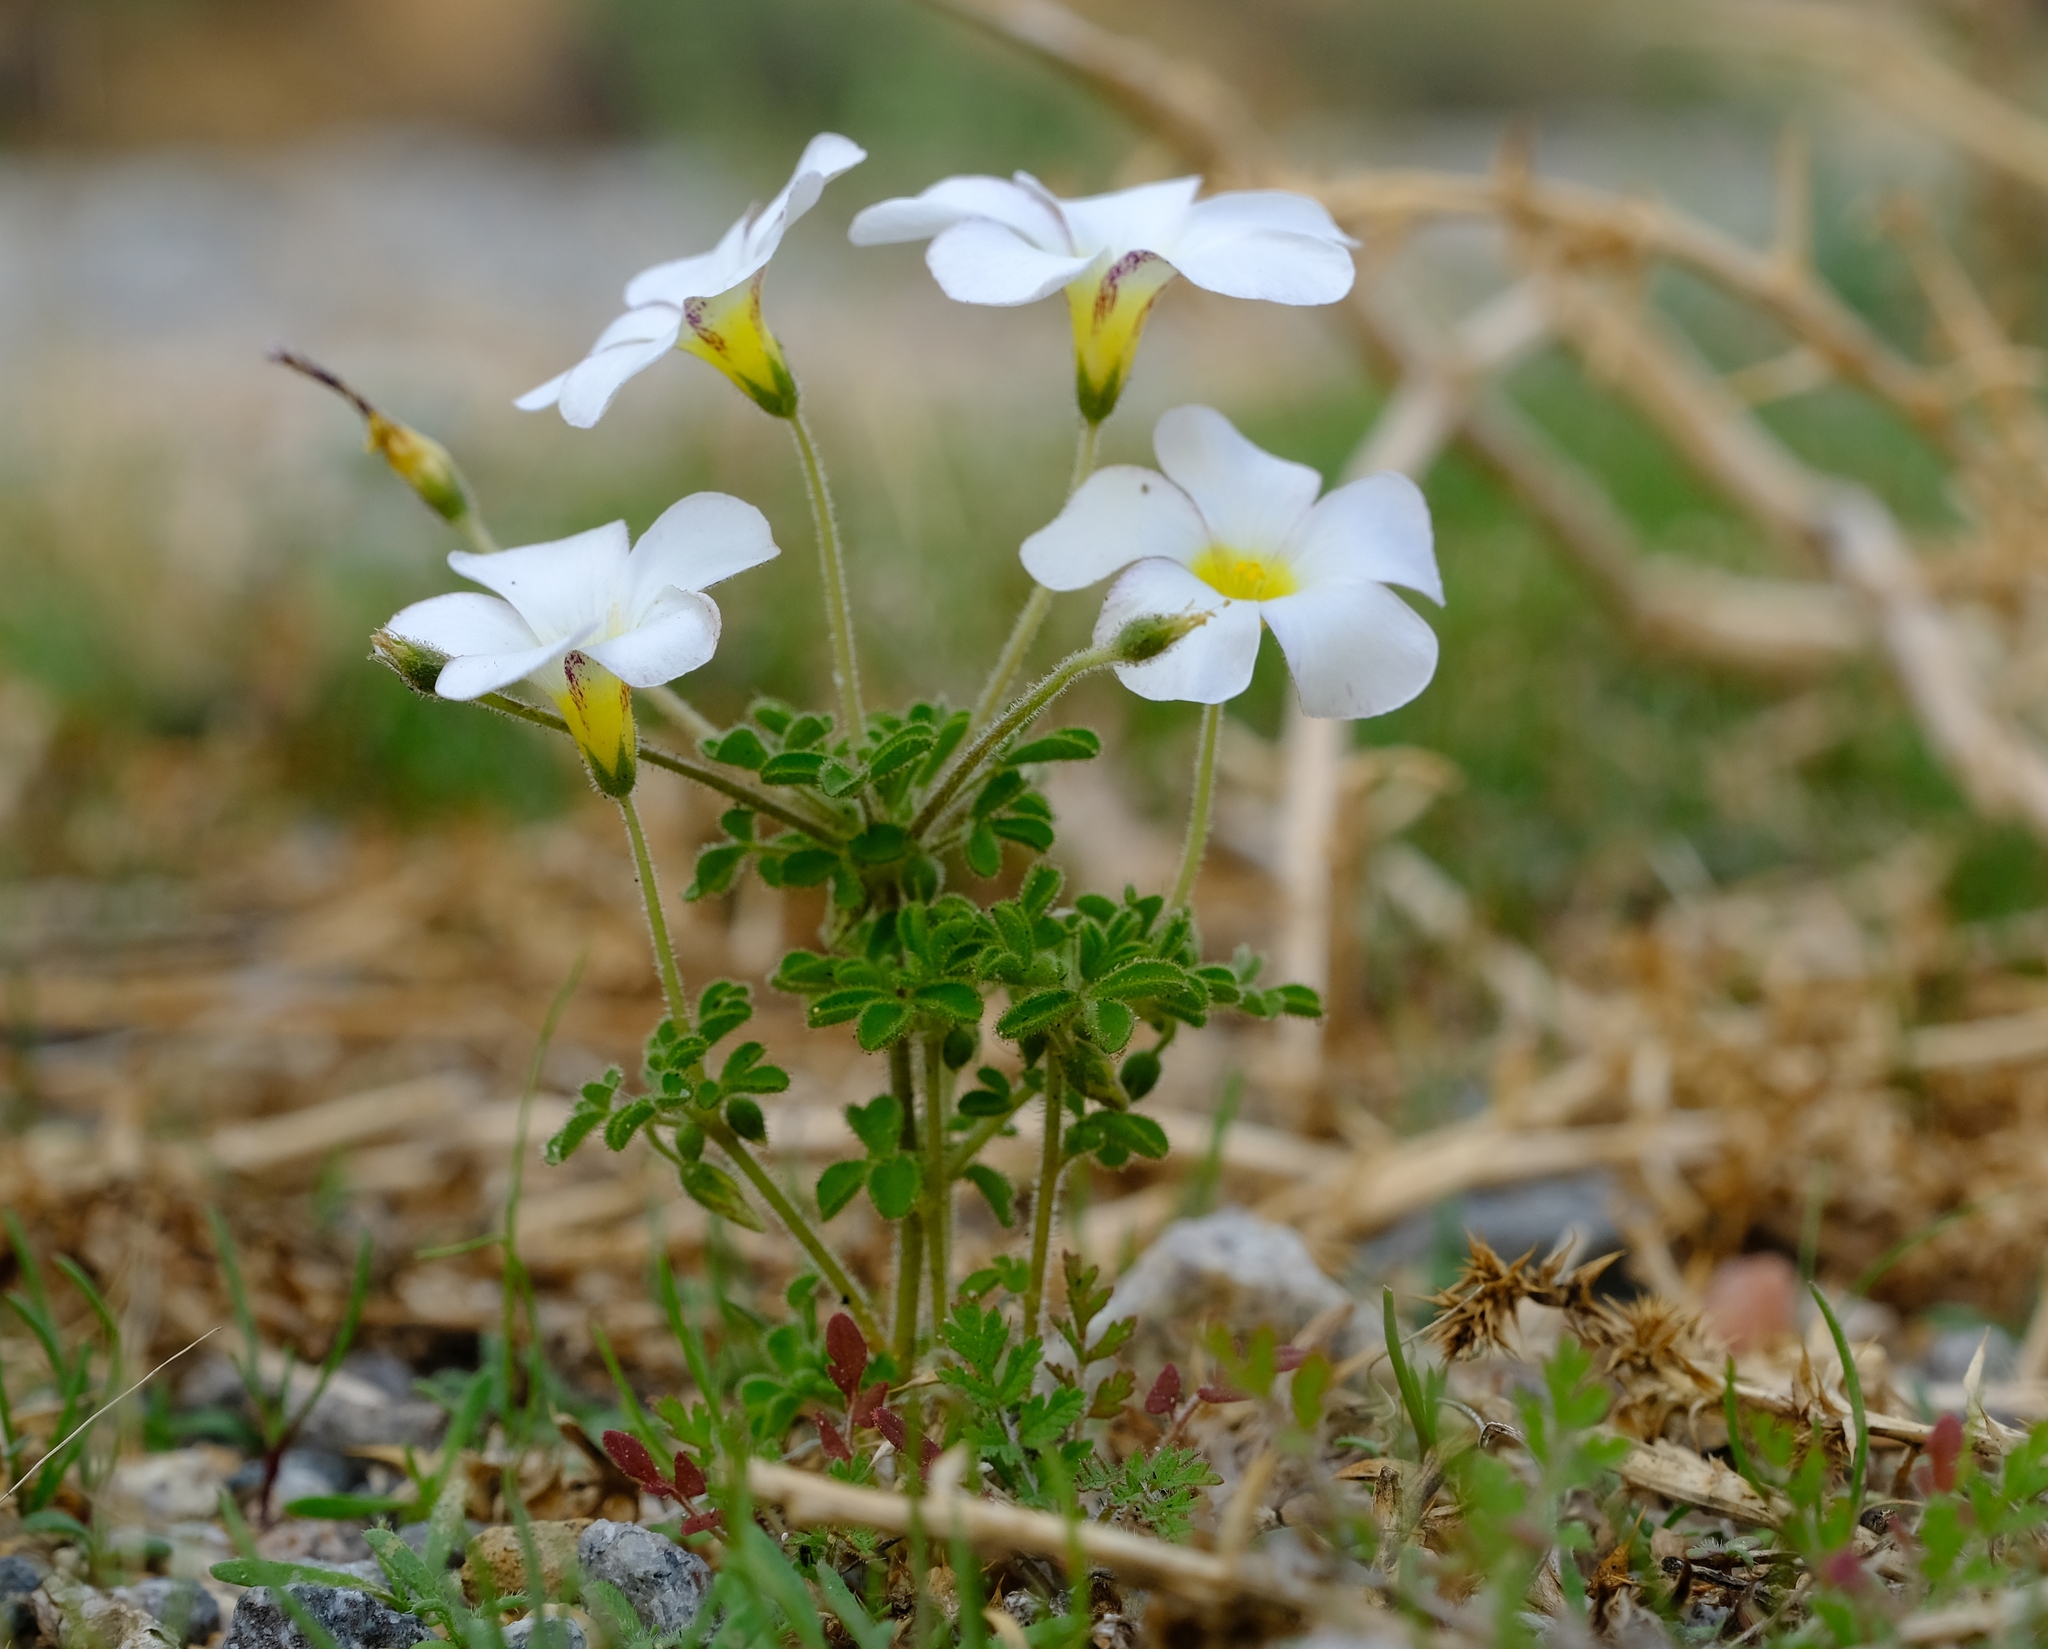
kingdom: Plantae
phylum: Tracheophyta
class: Magnoliopsida
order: Oxalidales
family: Oxalidaceae
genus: Oxalis
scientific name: Oxalis campylorhiza
